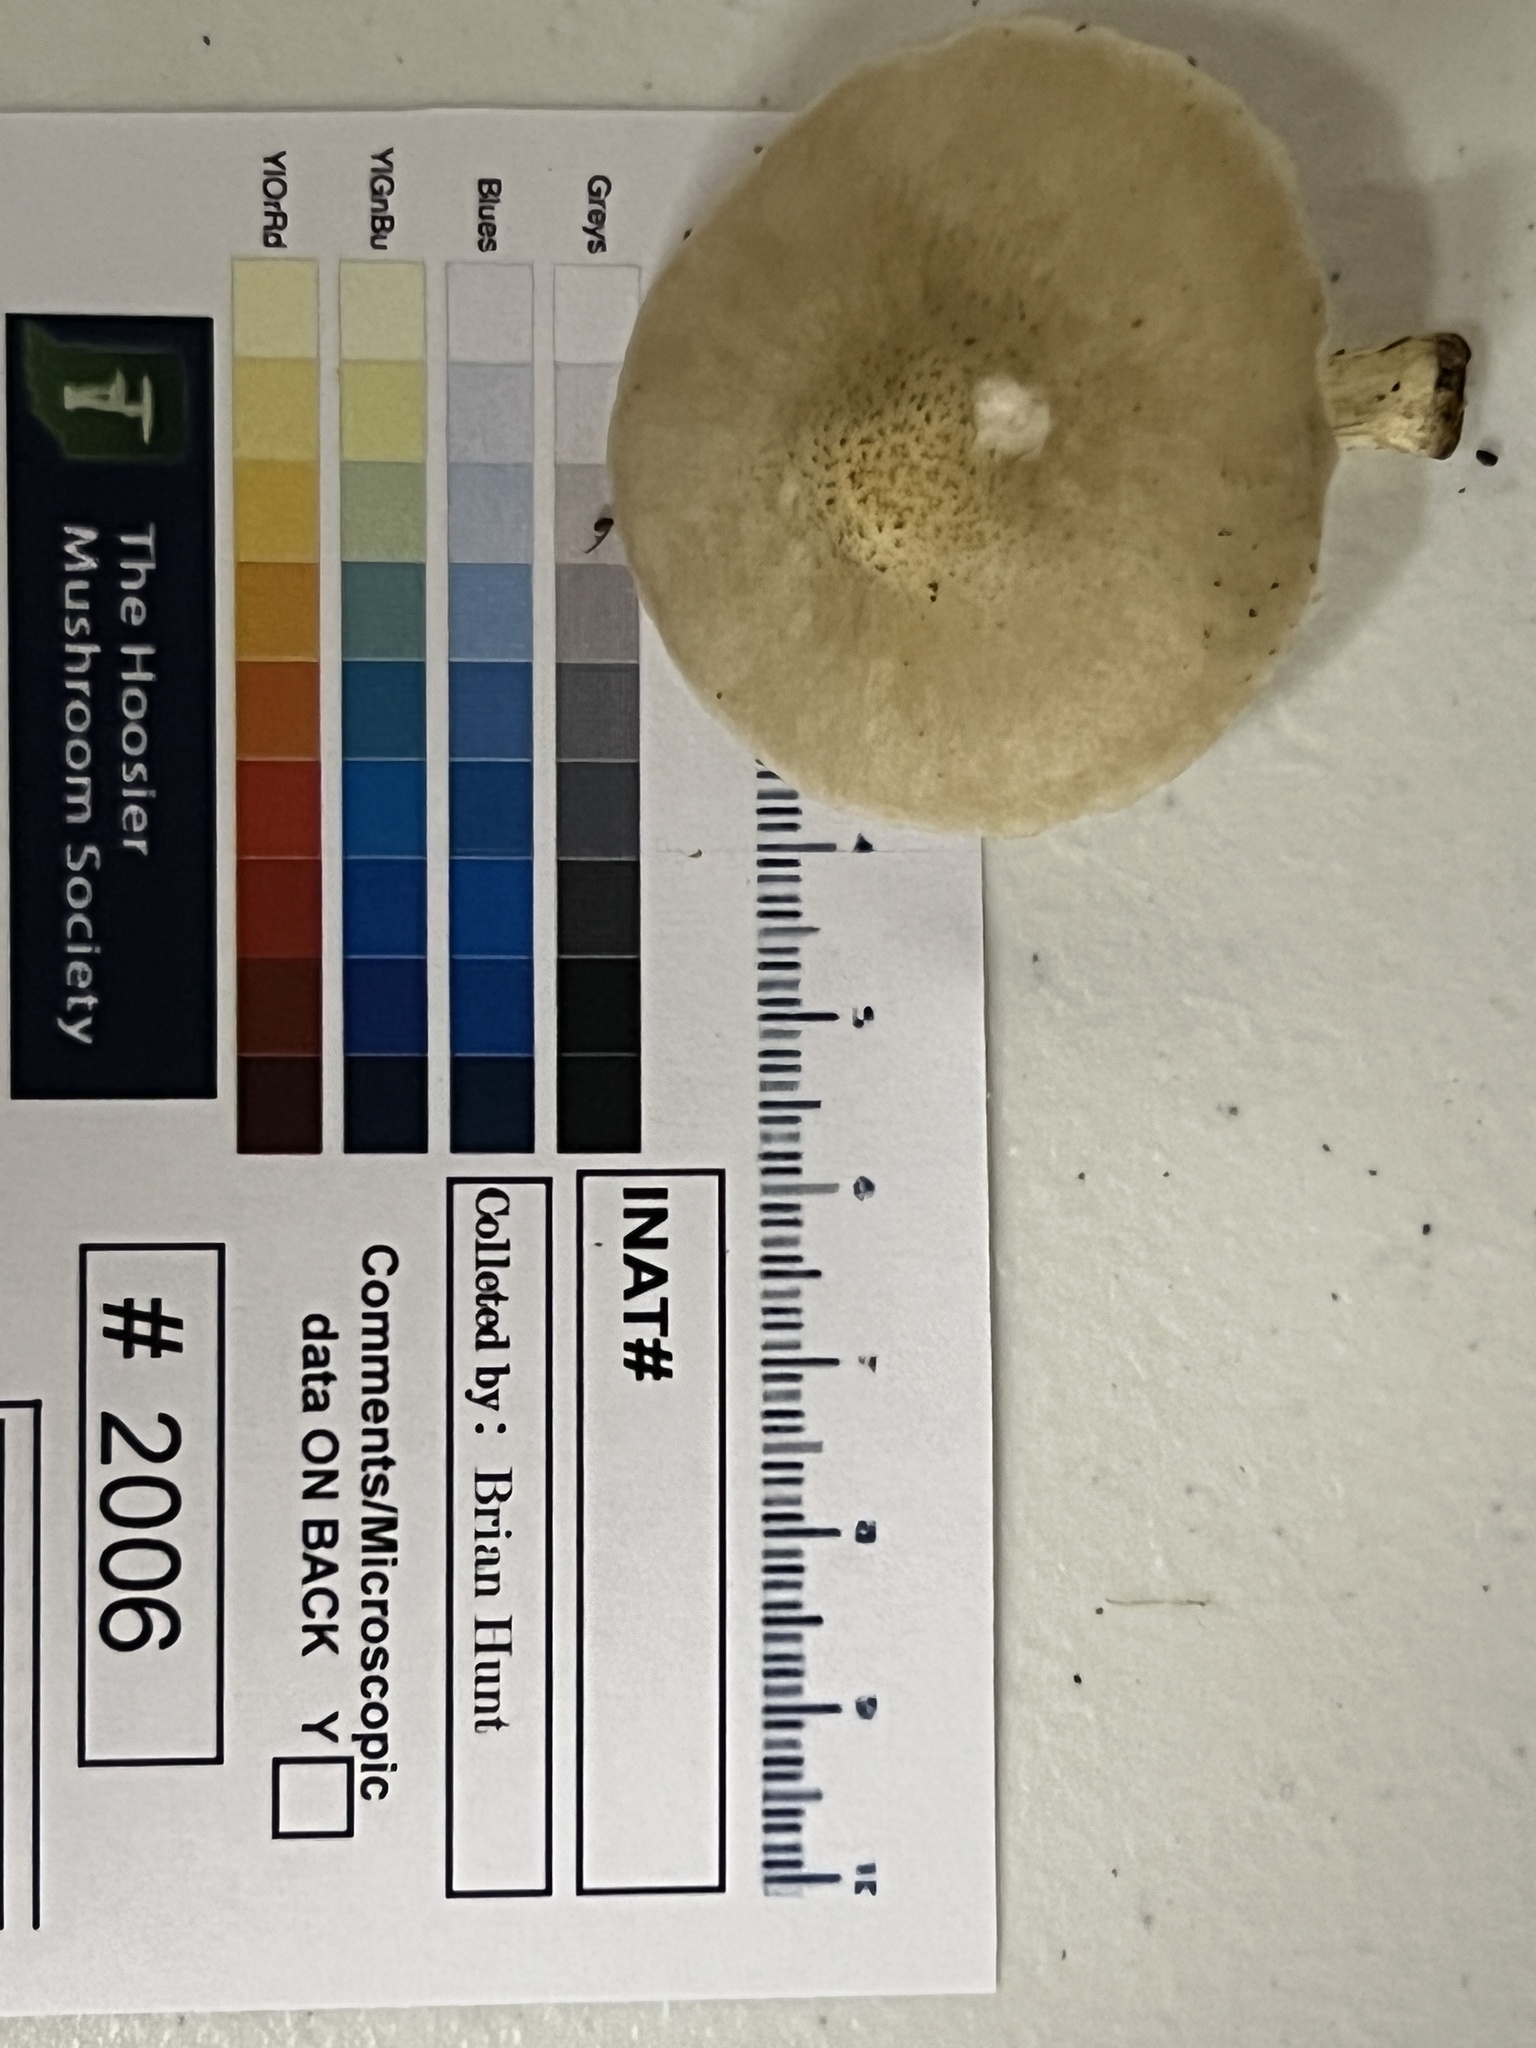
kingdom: Fungi
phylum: Basidiomycota
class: Agaricomycetes
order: Agaricales
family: Pluteaceae
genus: Pluteus
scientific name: Pluteus petasatus
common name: Scaly shield
